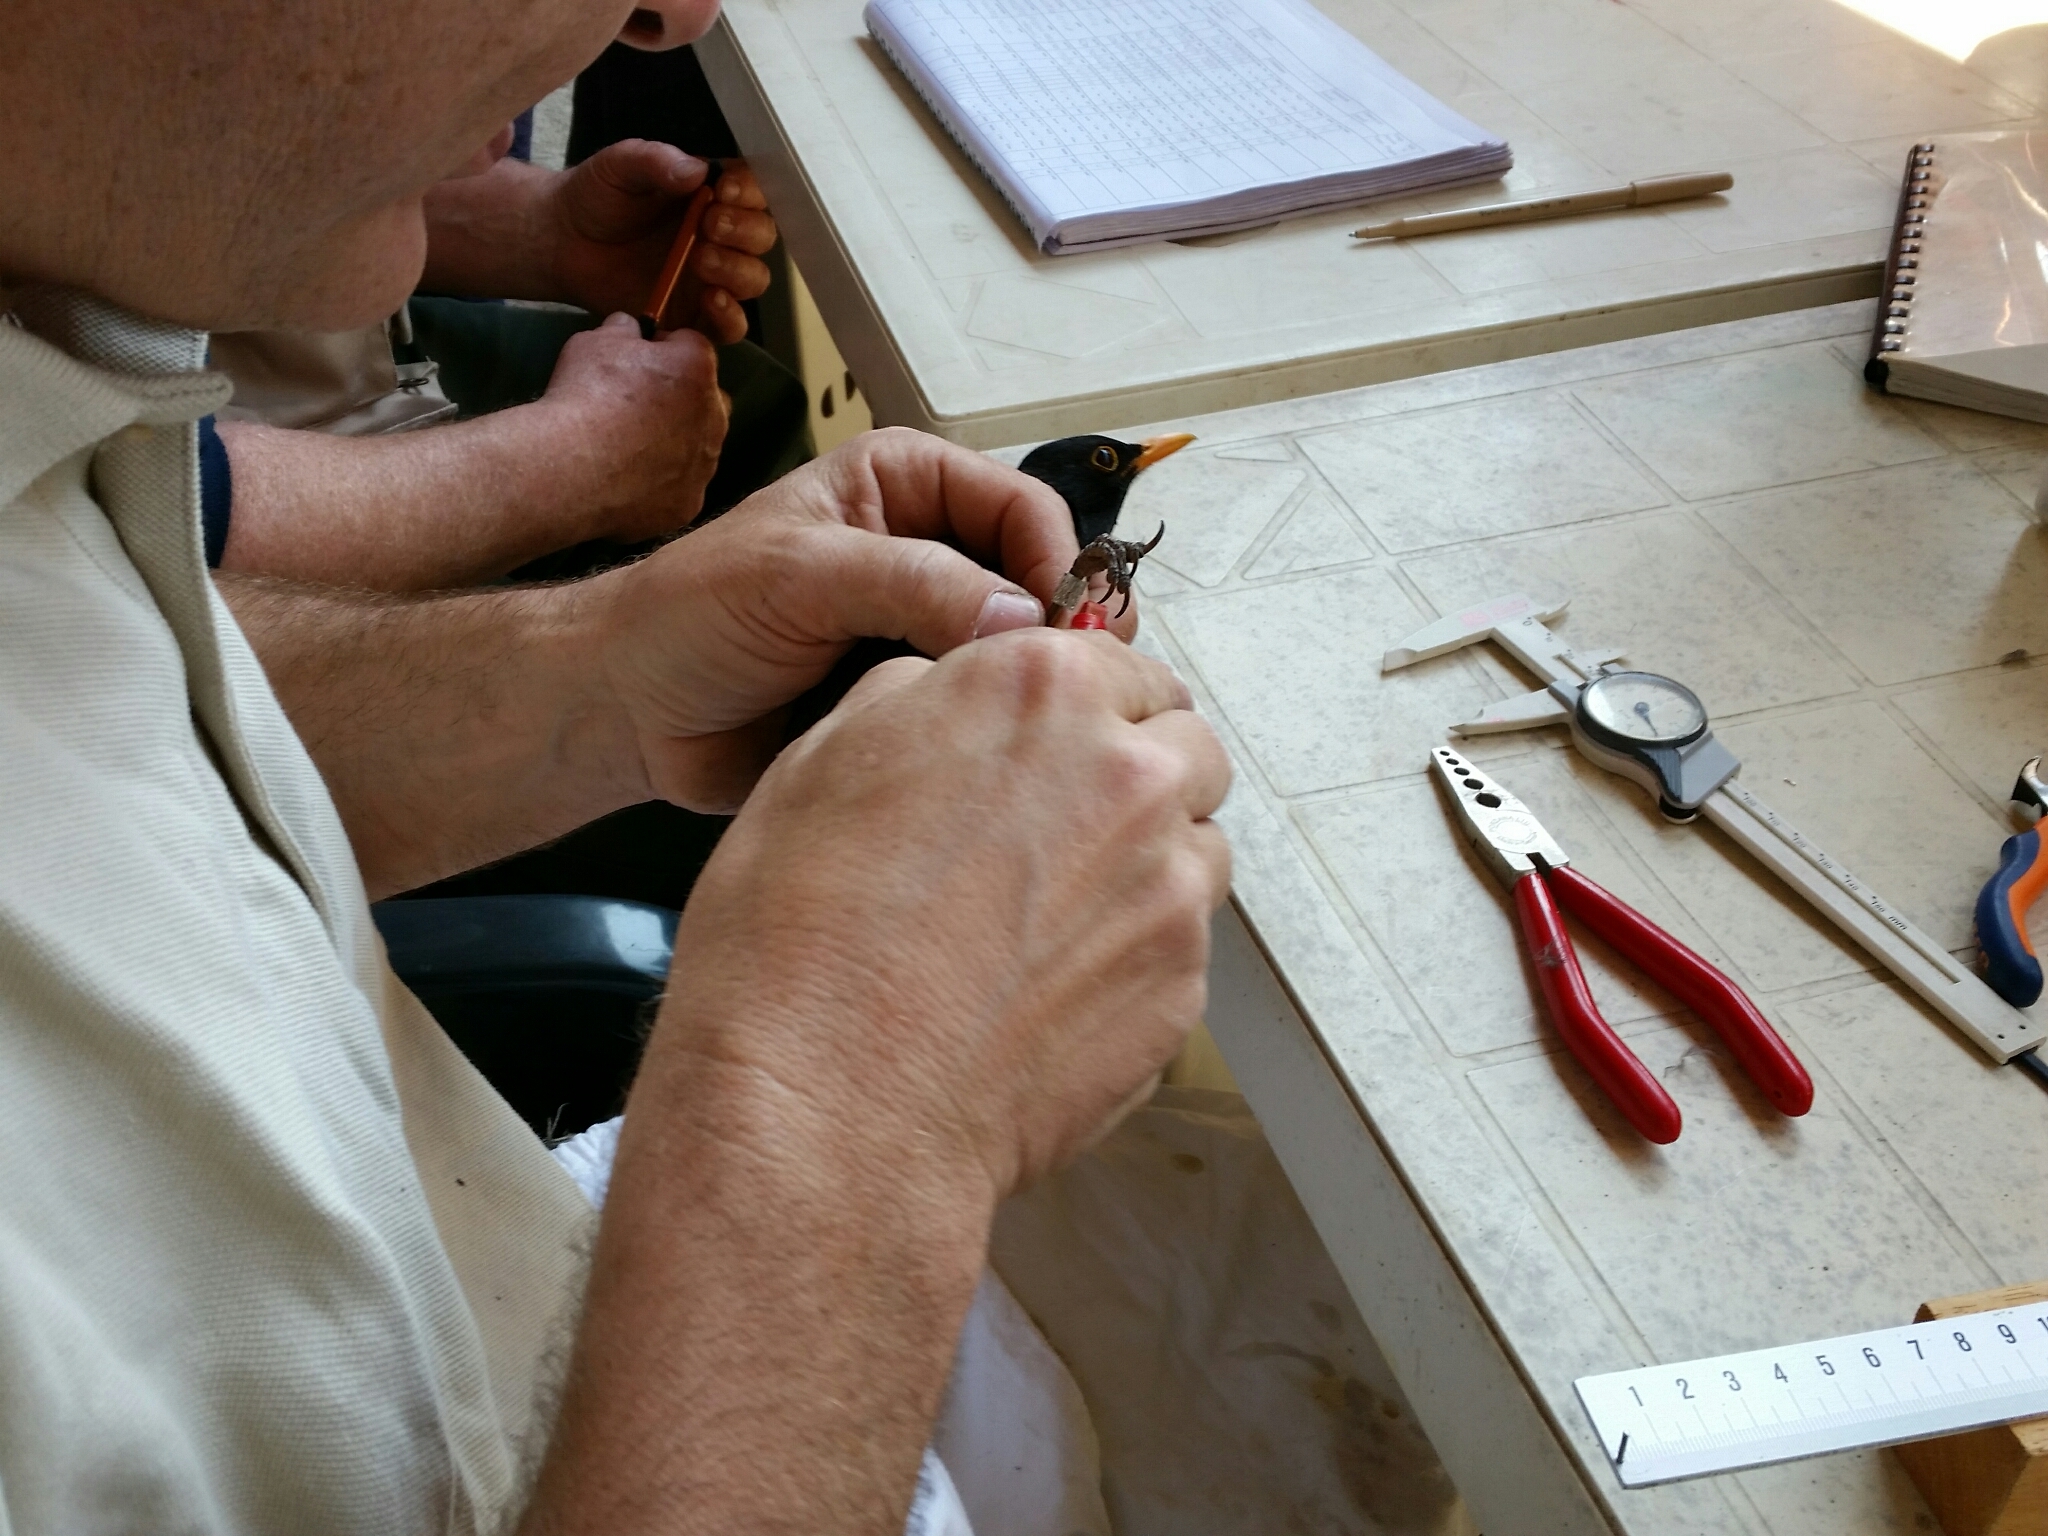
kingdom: Animalia
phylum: Chordata
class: Aves
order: Passeriformes
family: Turdidae
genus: Turdus
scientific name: Turdus merula
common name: Common blackbird
